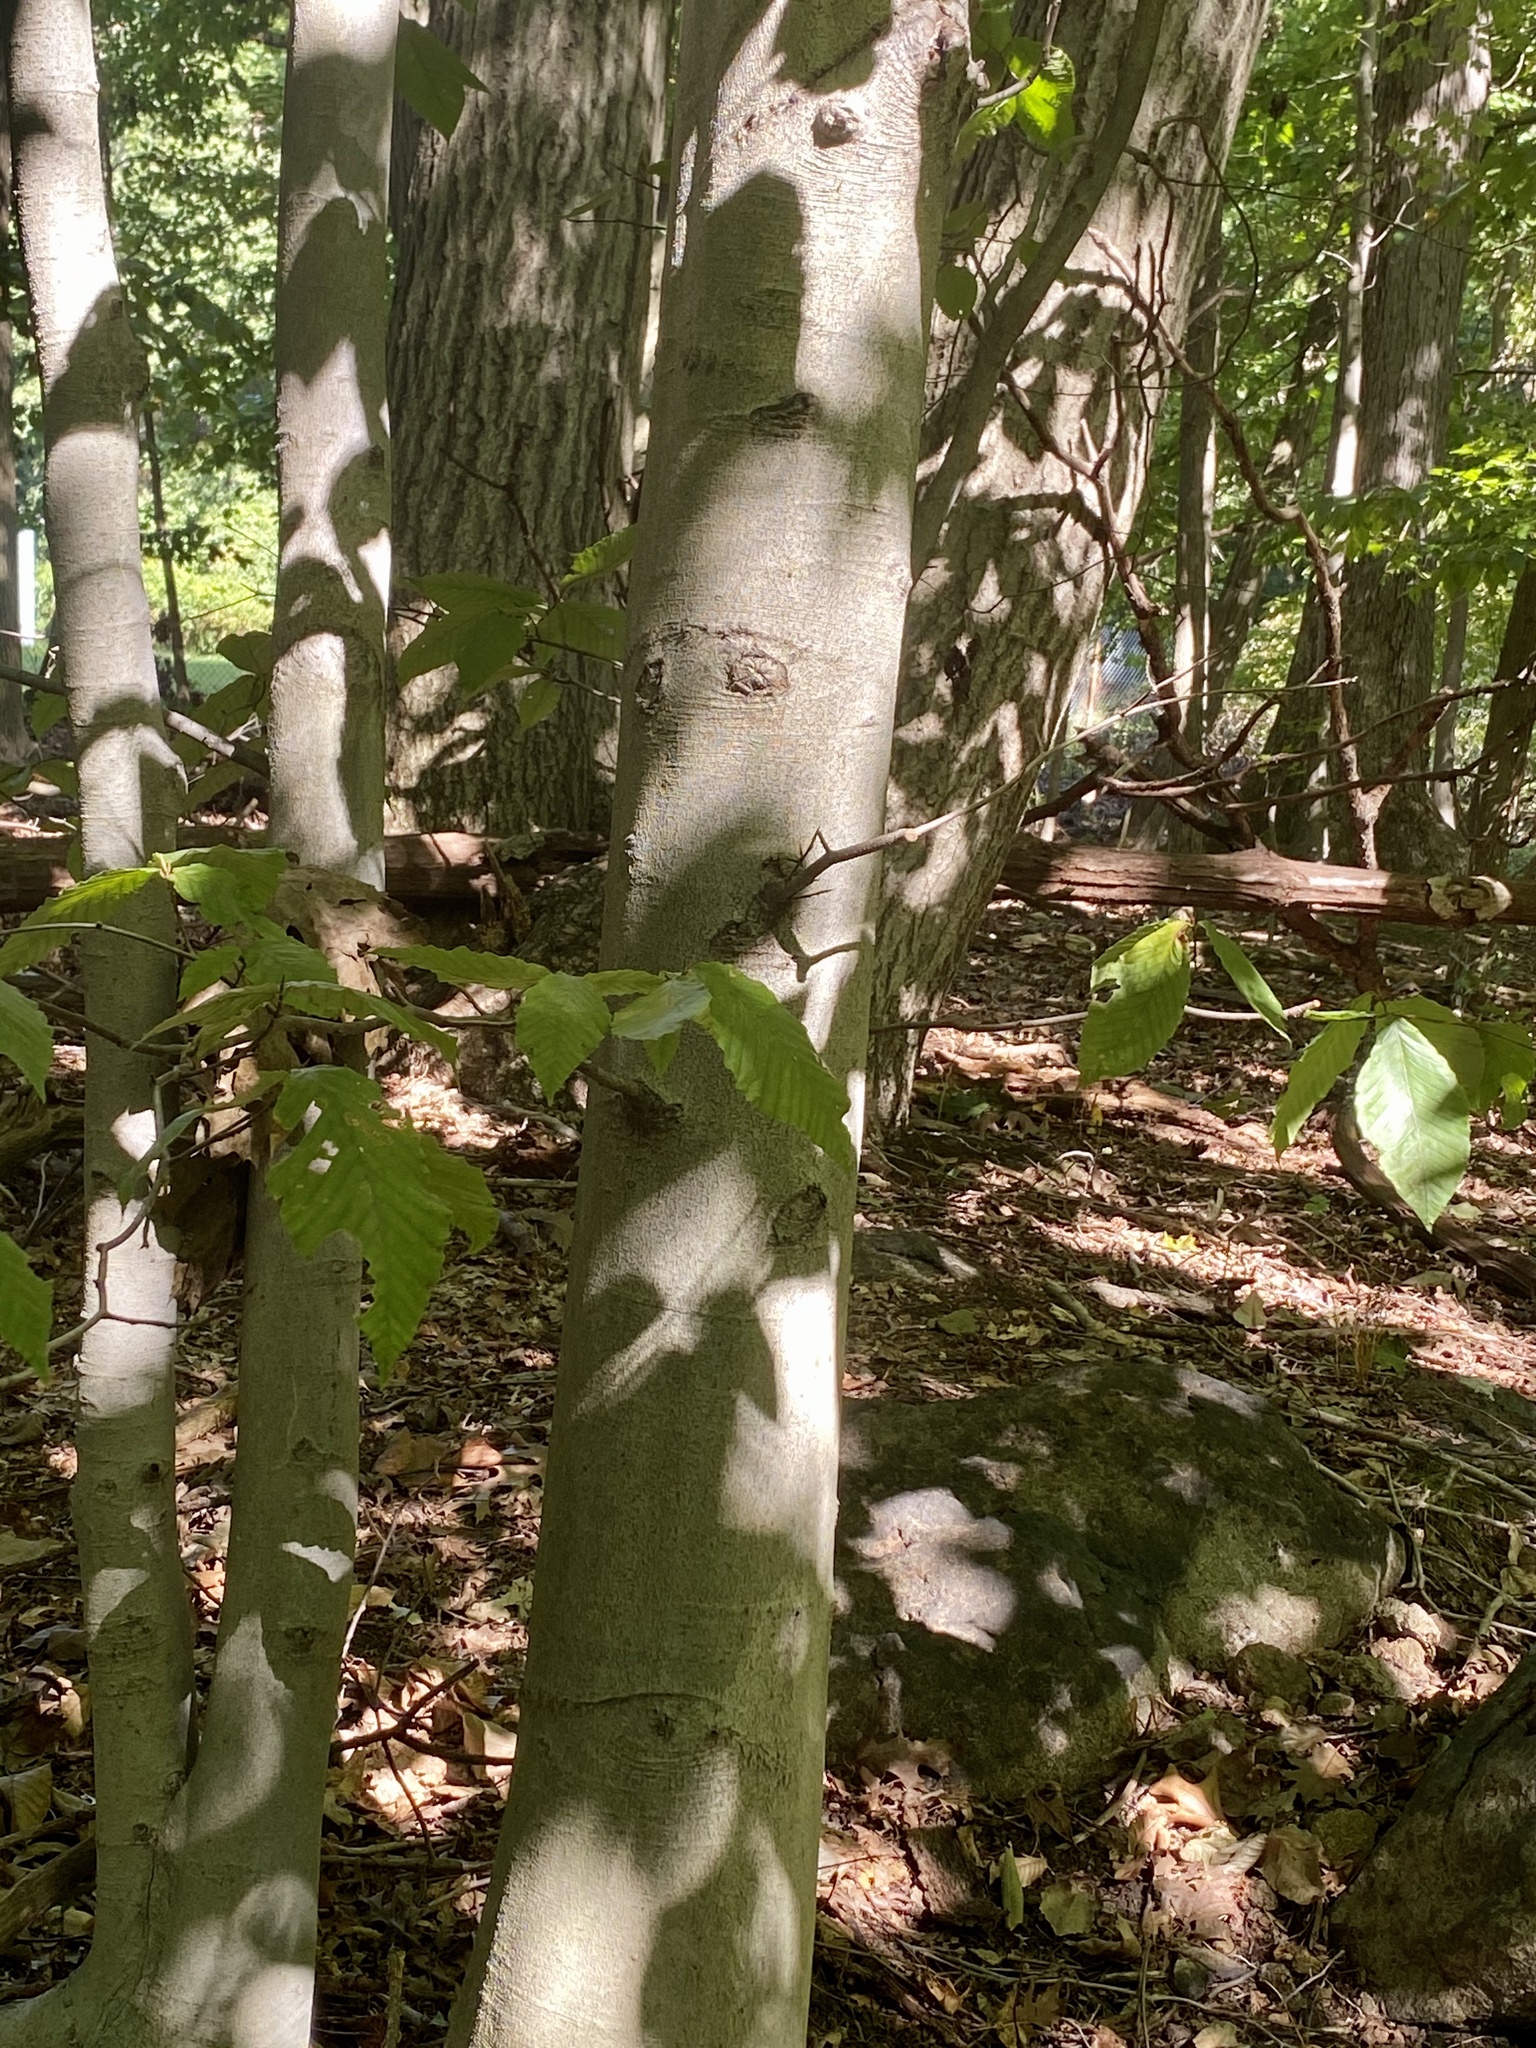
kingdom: Plantae
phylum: Tracheophyta
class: Magnoliopsida
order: Fagales
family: Fagaceae
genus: Fagus
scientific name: Fagus grandifolia
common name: American beech
